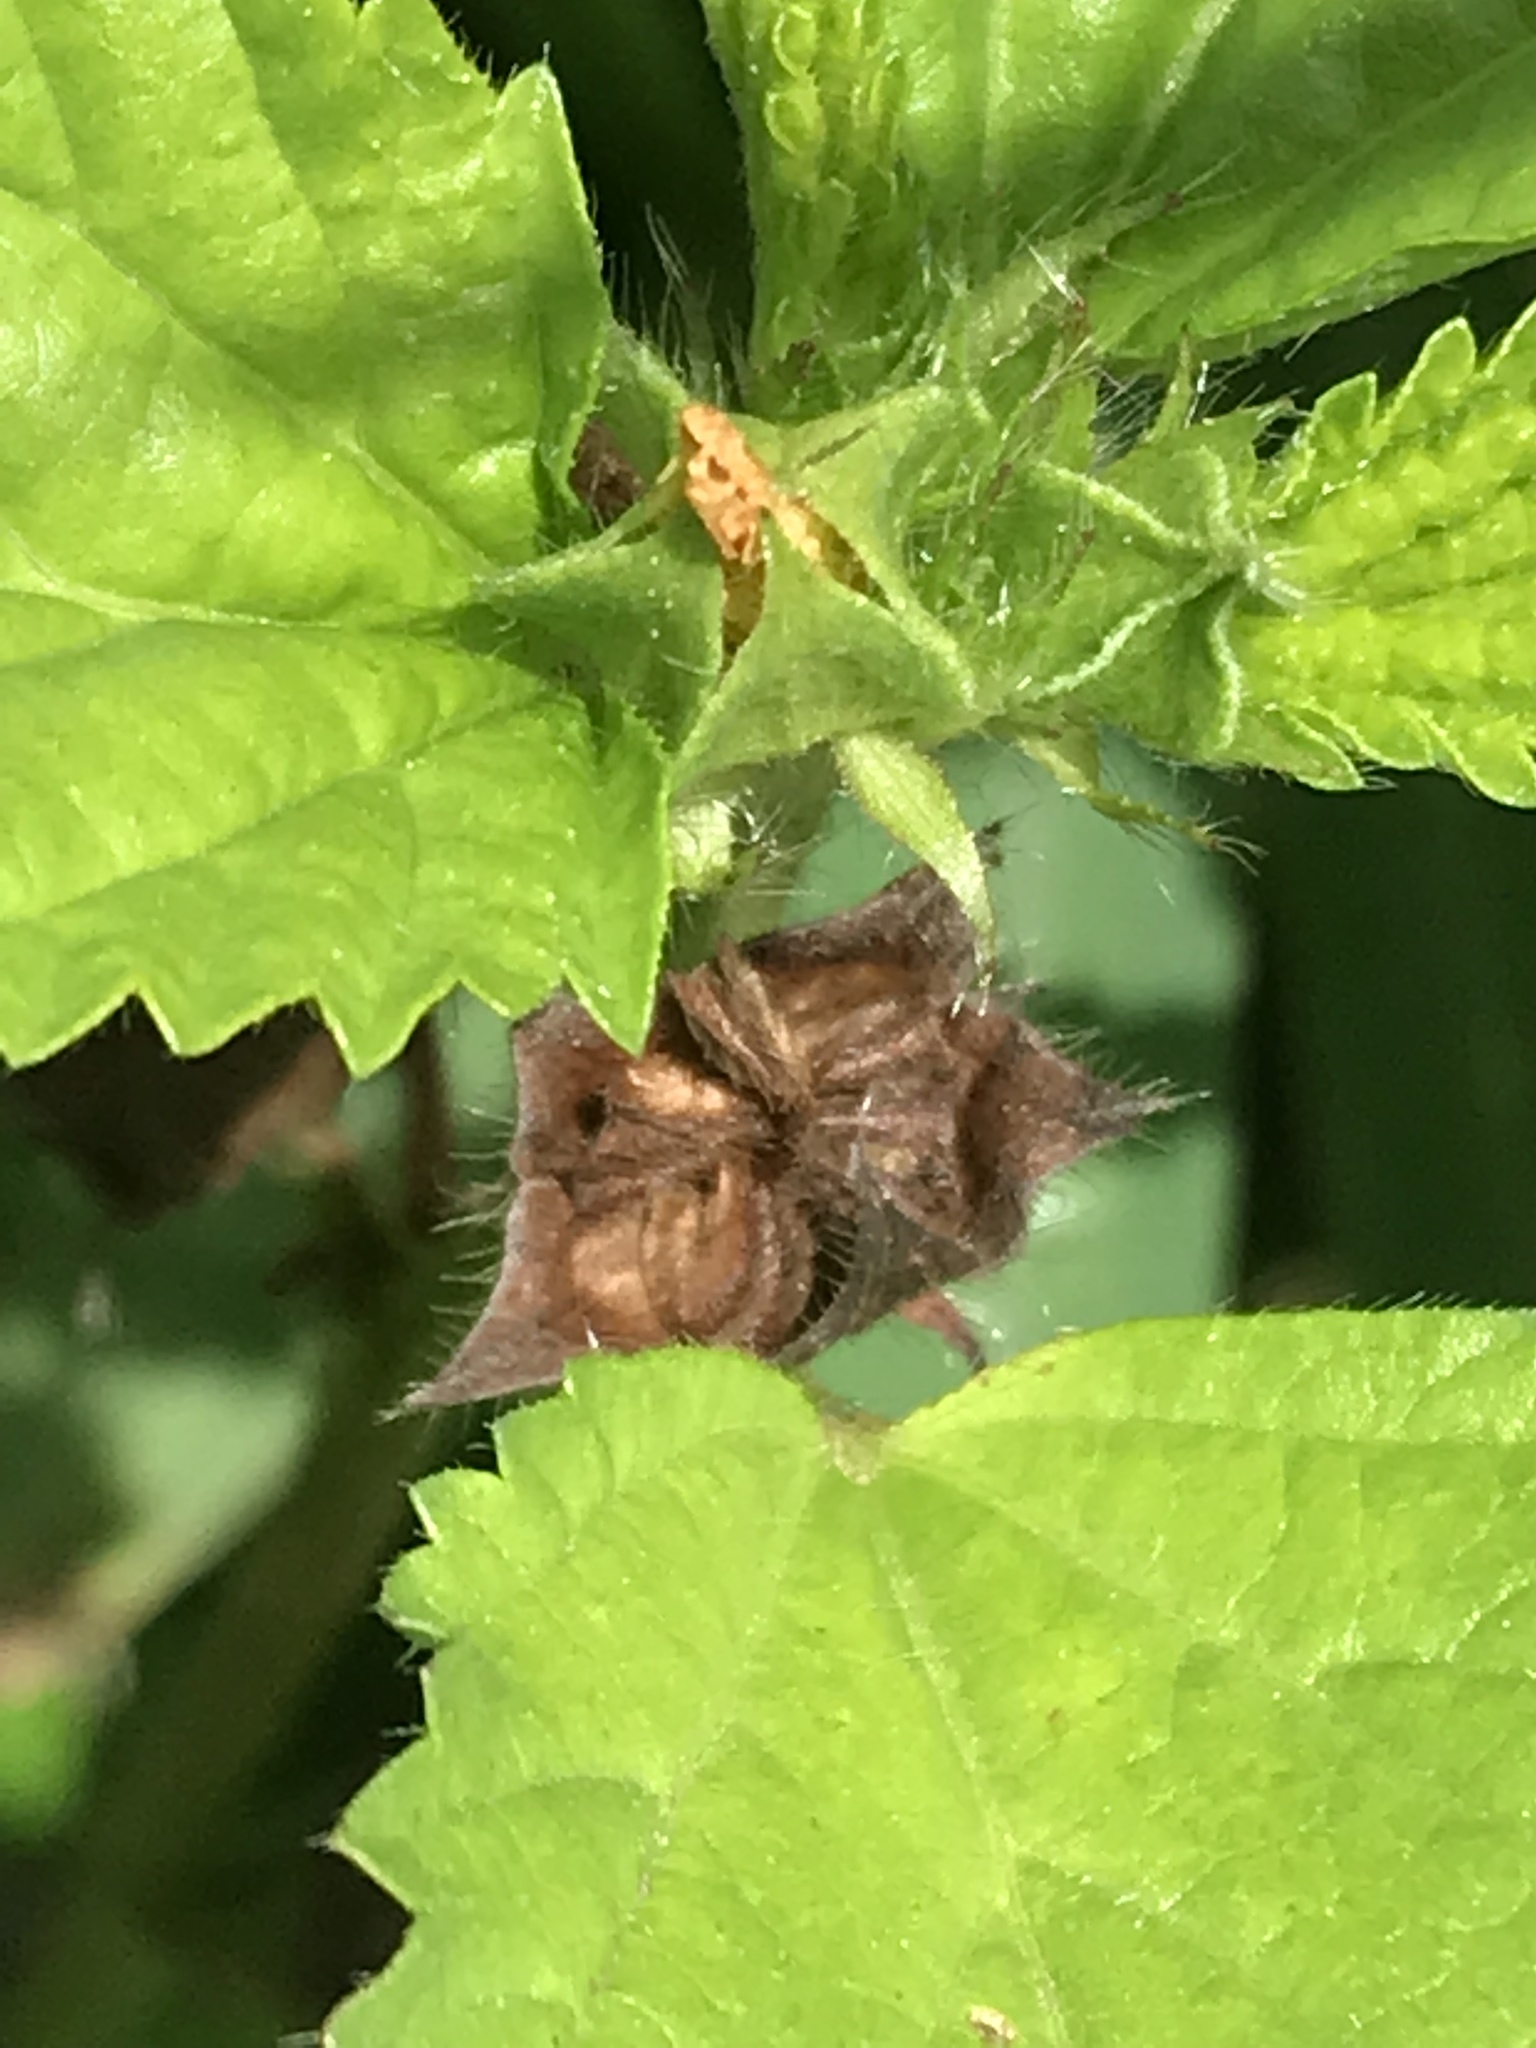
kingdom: Plantae
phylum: Tracheophyta
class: Magnoliopsida
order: Malvales
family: Malvaceae
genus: Malvastrum
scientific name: Malvastrum coromandelianum
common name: Threelobe false mallow
